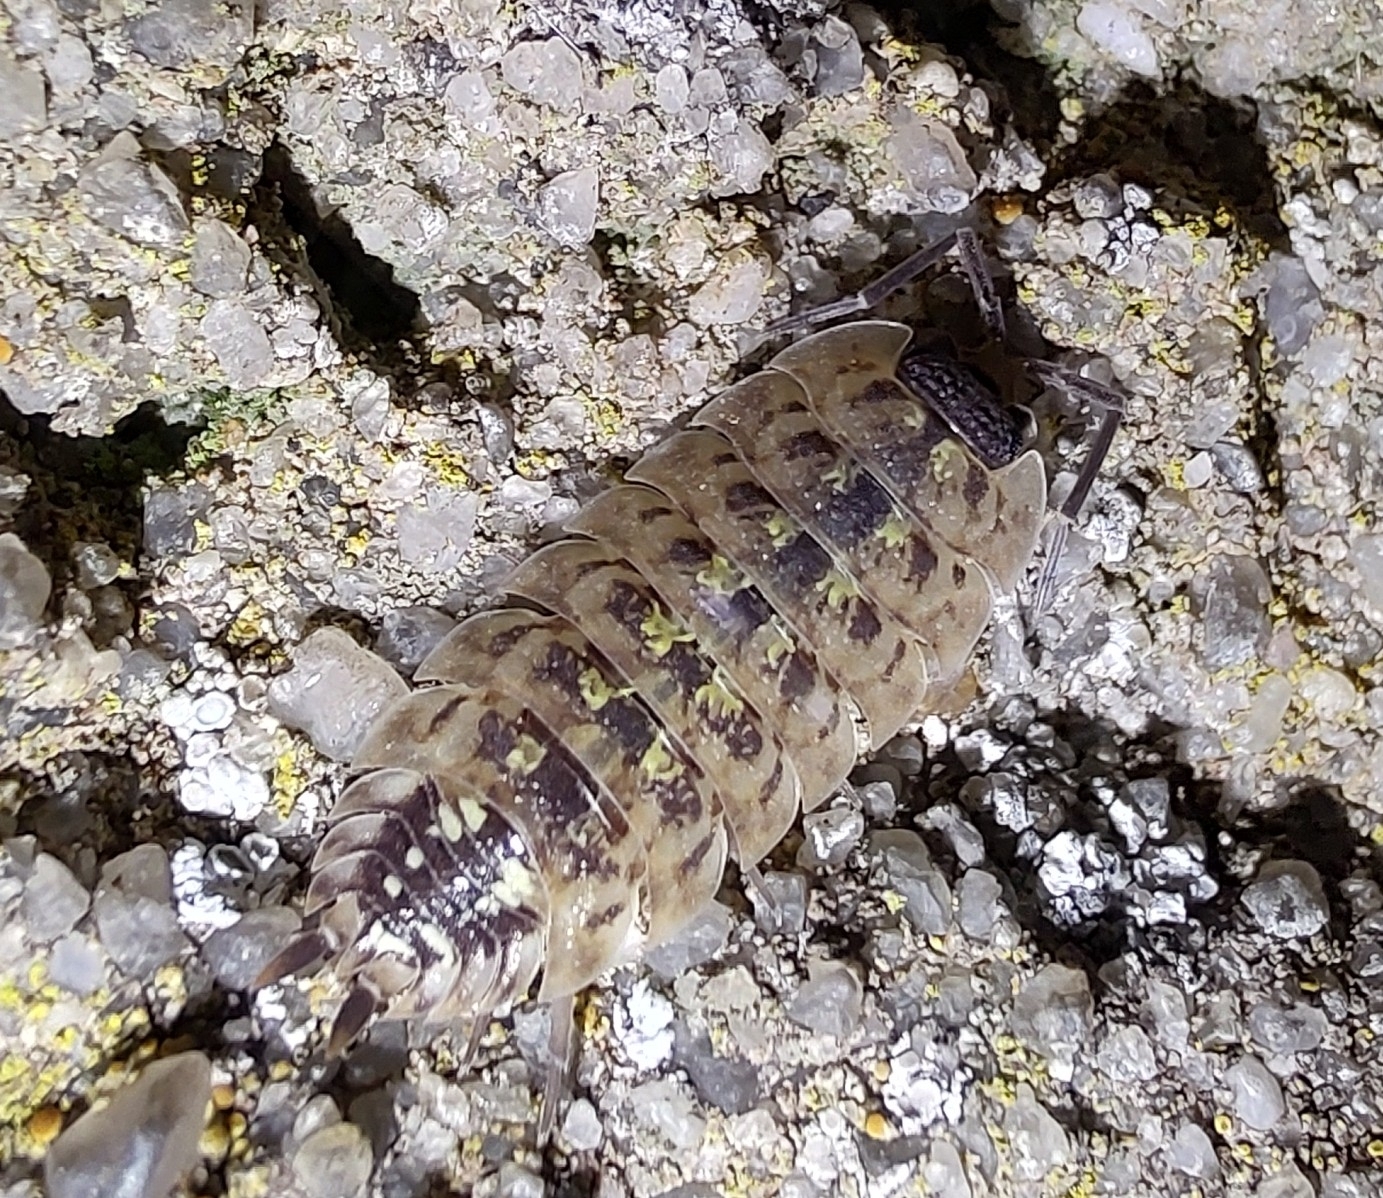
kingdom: Animalia
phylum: Arthropoda
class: Malacostraca
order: Isopoda
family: Porcellionidae
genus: Porcellio
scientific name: Porcellio spinicornis
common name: Painted woodlouse
